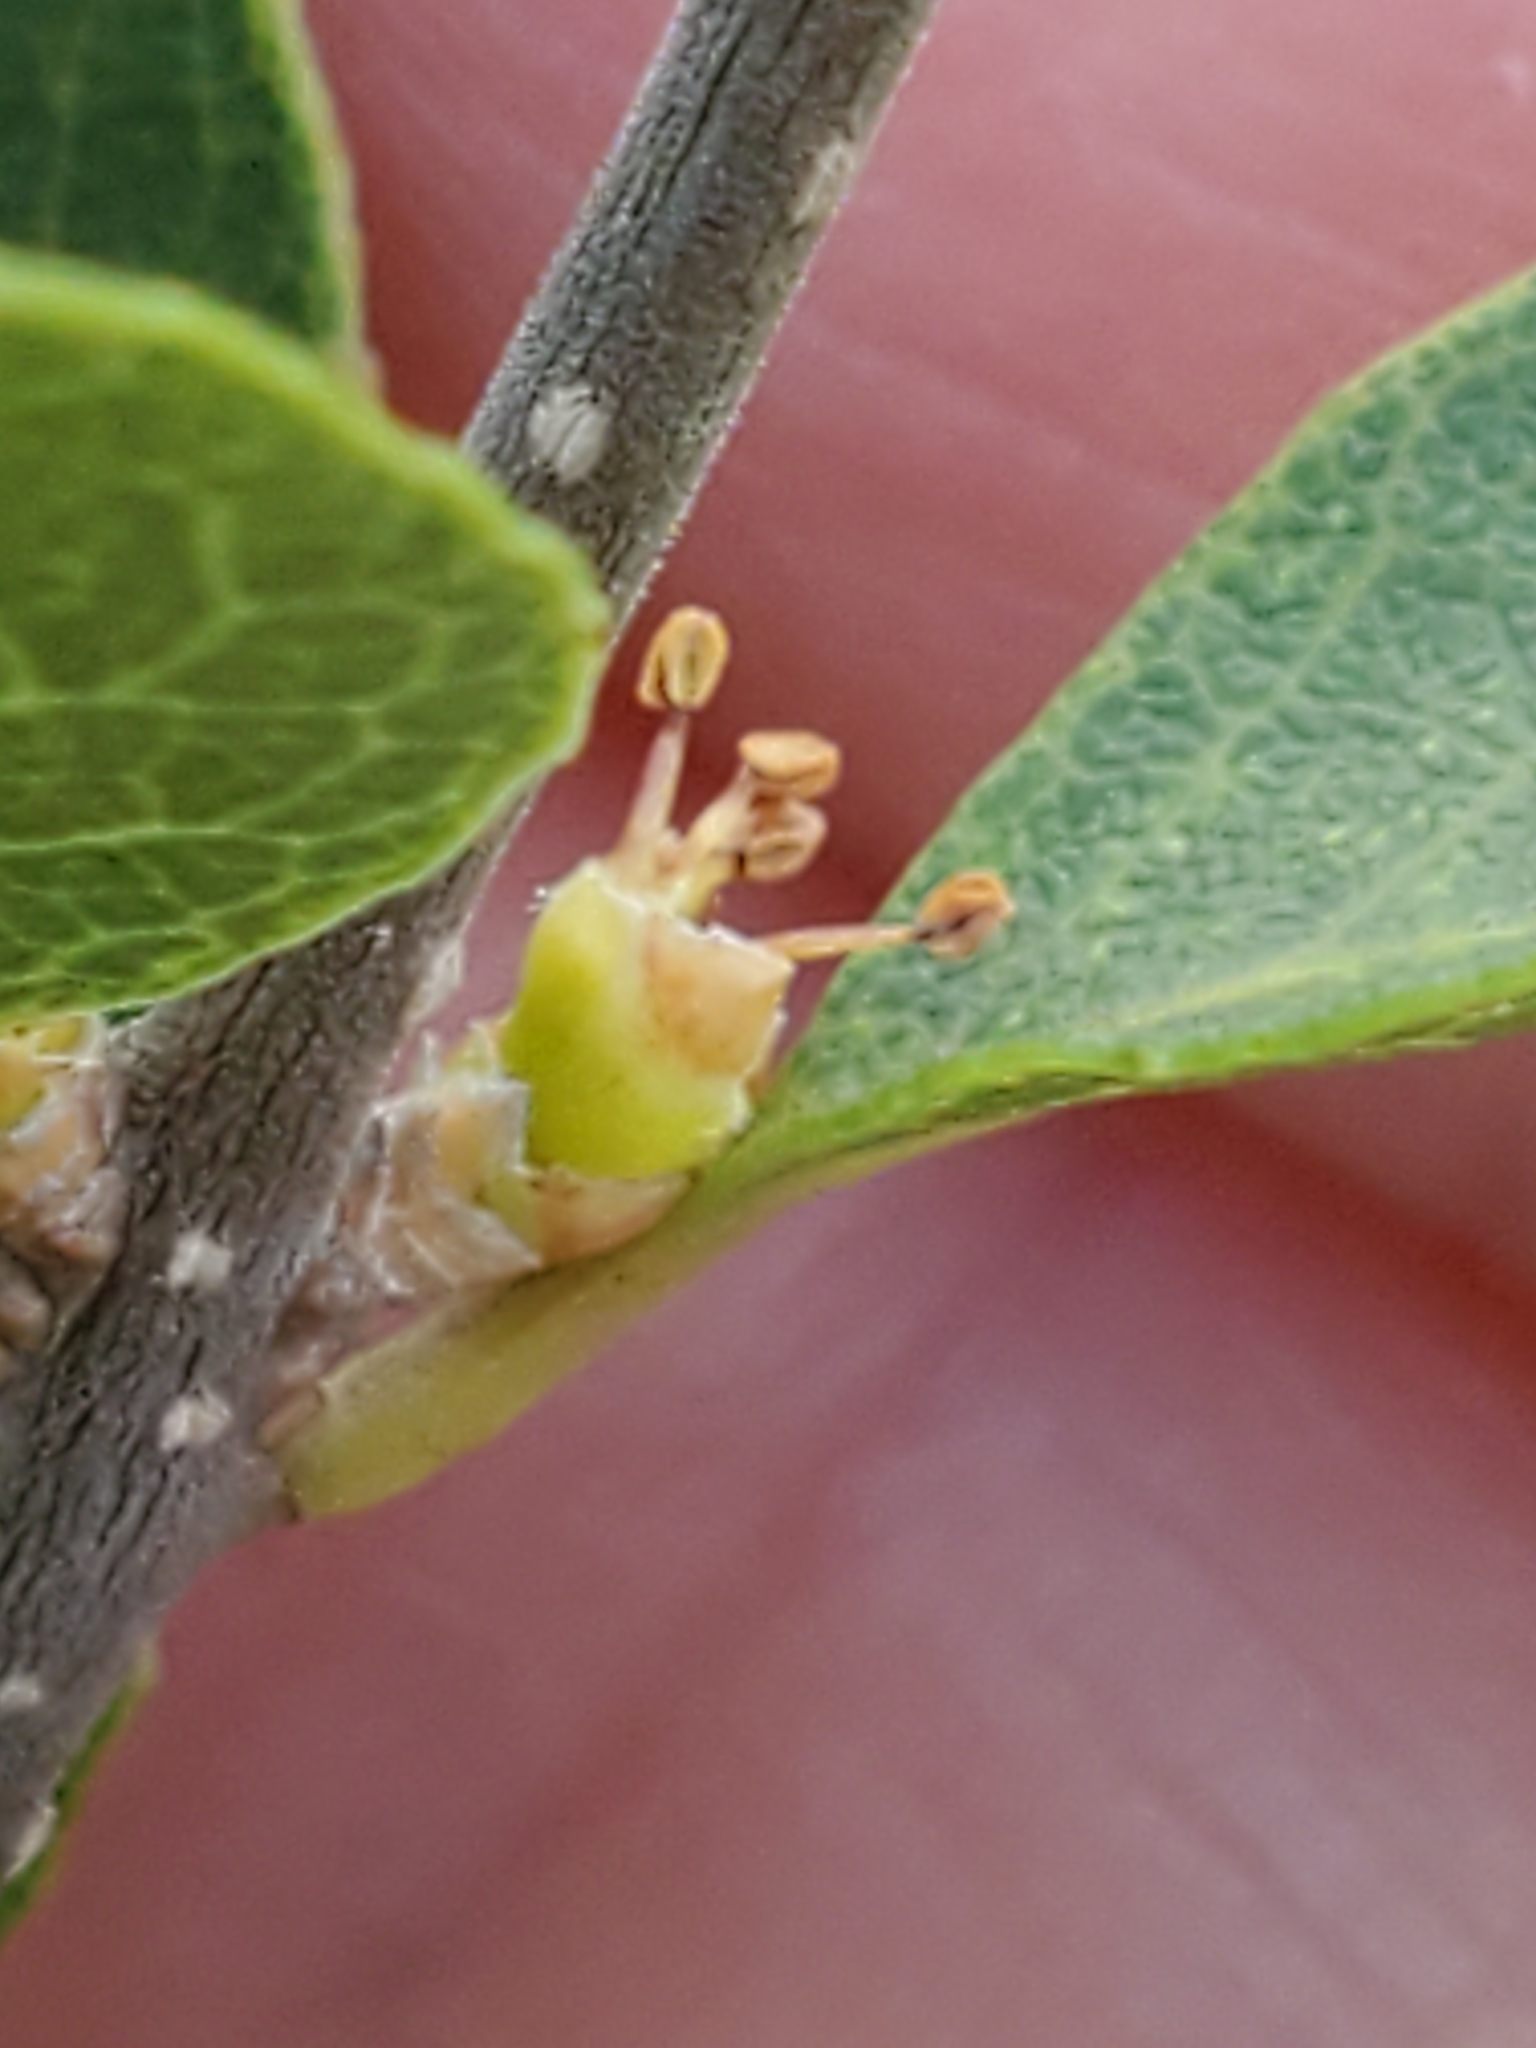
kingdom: Plantae
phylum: Tracheophyta
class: Magnoliopsida
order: Lamiales
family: Oleaceae
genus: Forestiera
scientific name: Forestiera reticulata
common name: Netleaf swamp-privet
